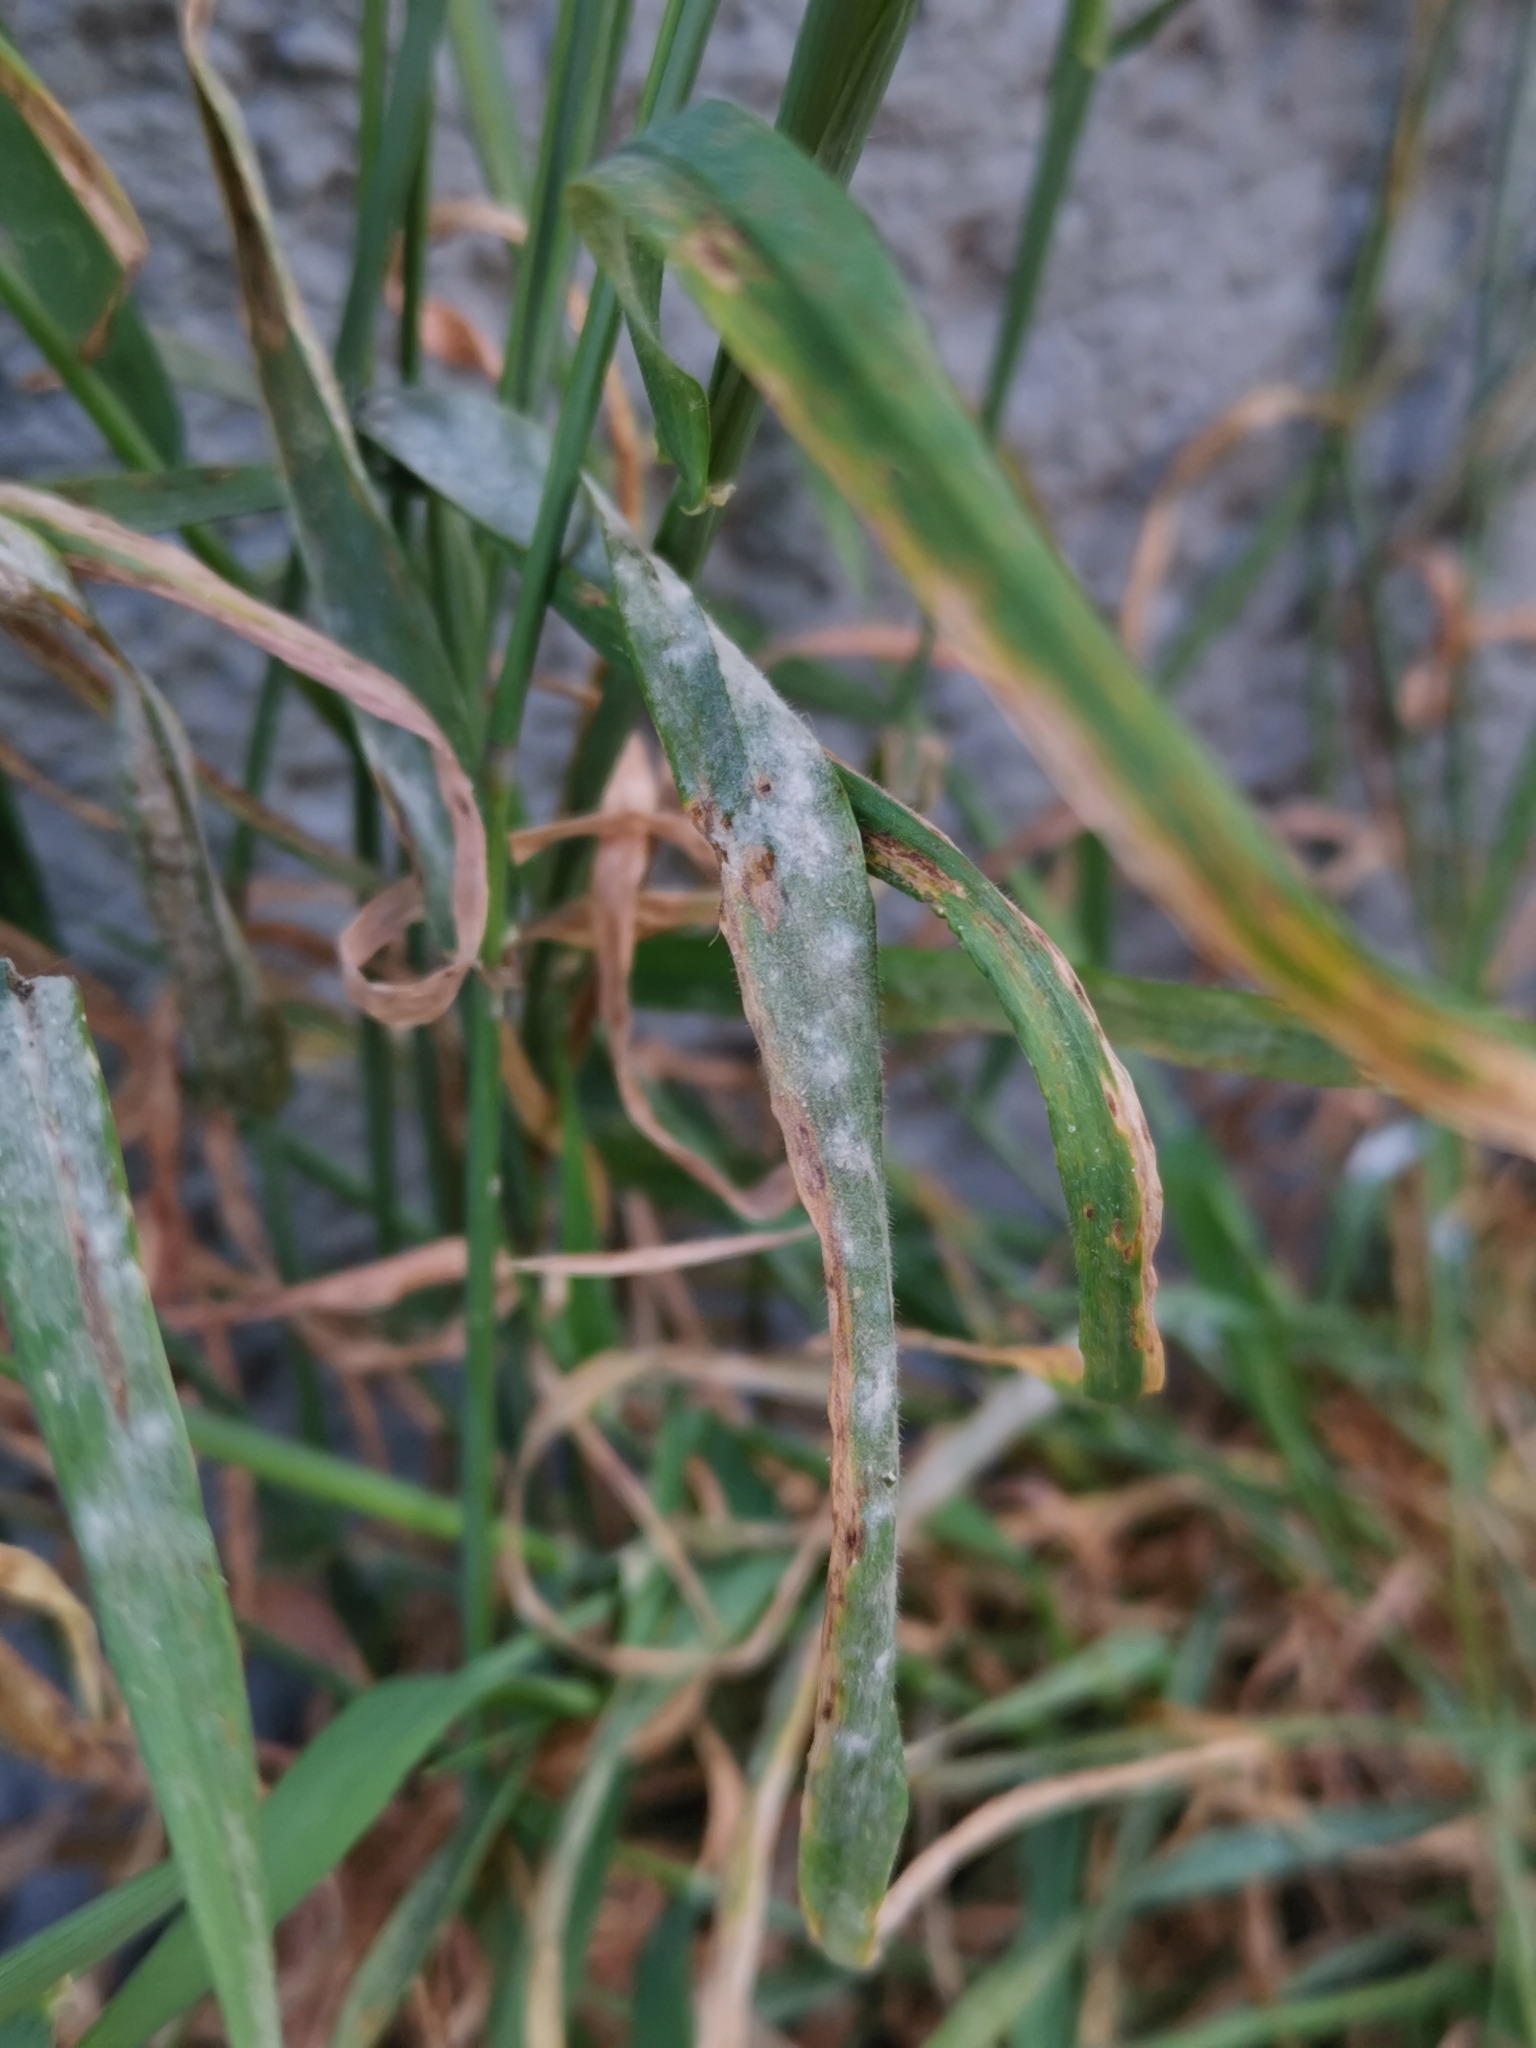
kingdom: Fungi
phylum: Ascomycota
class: Leotiomycetes
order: Helotiales
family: Erysiphaceae
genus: Blumeria
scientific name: Blumeria hordei
